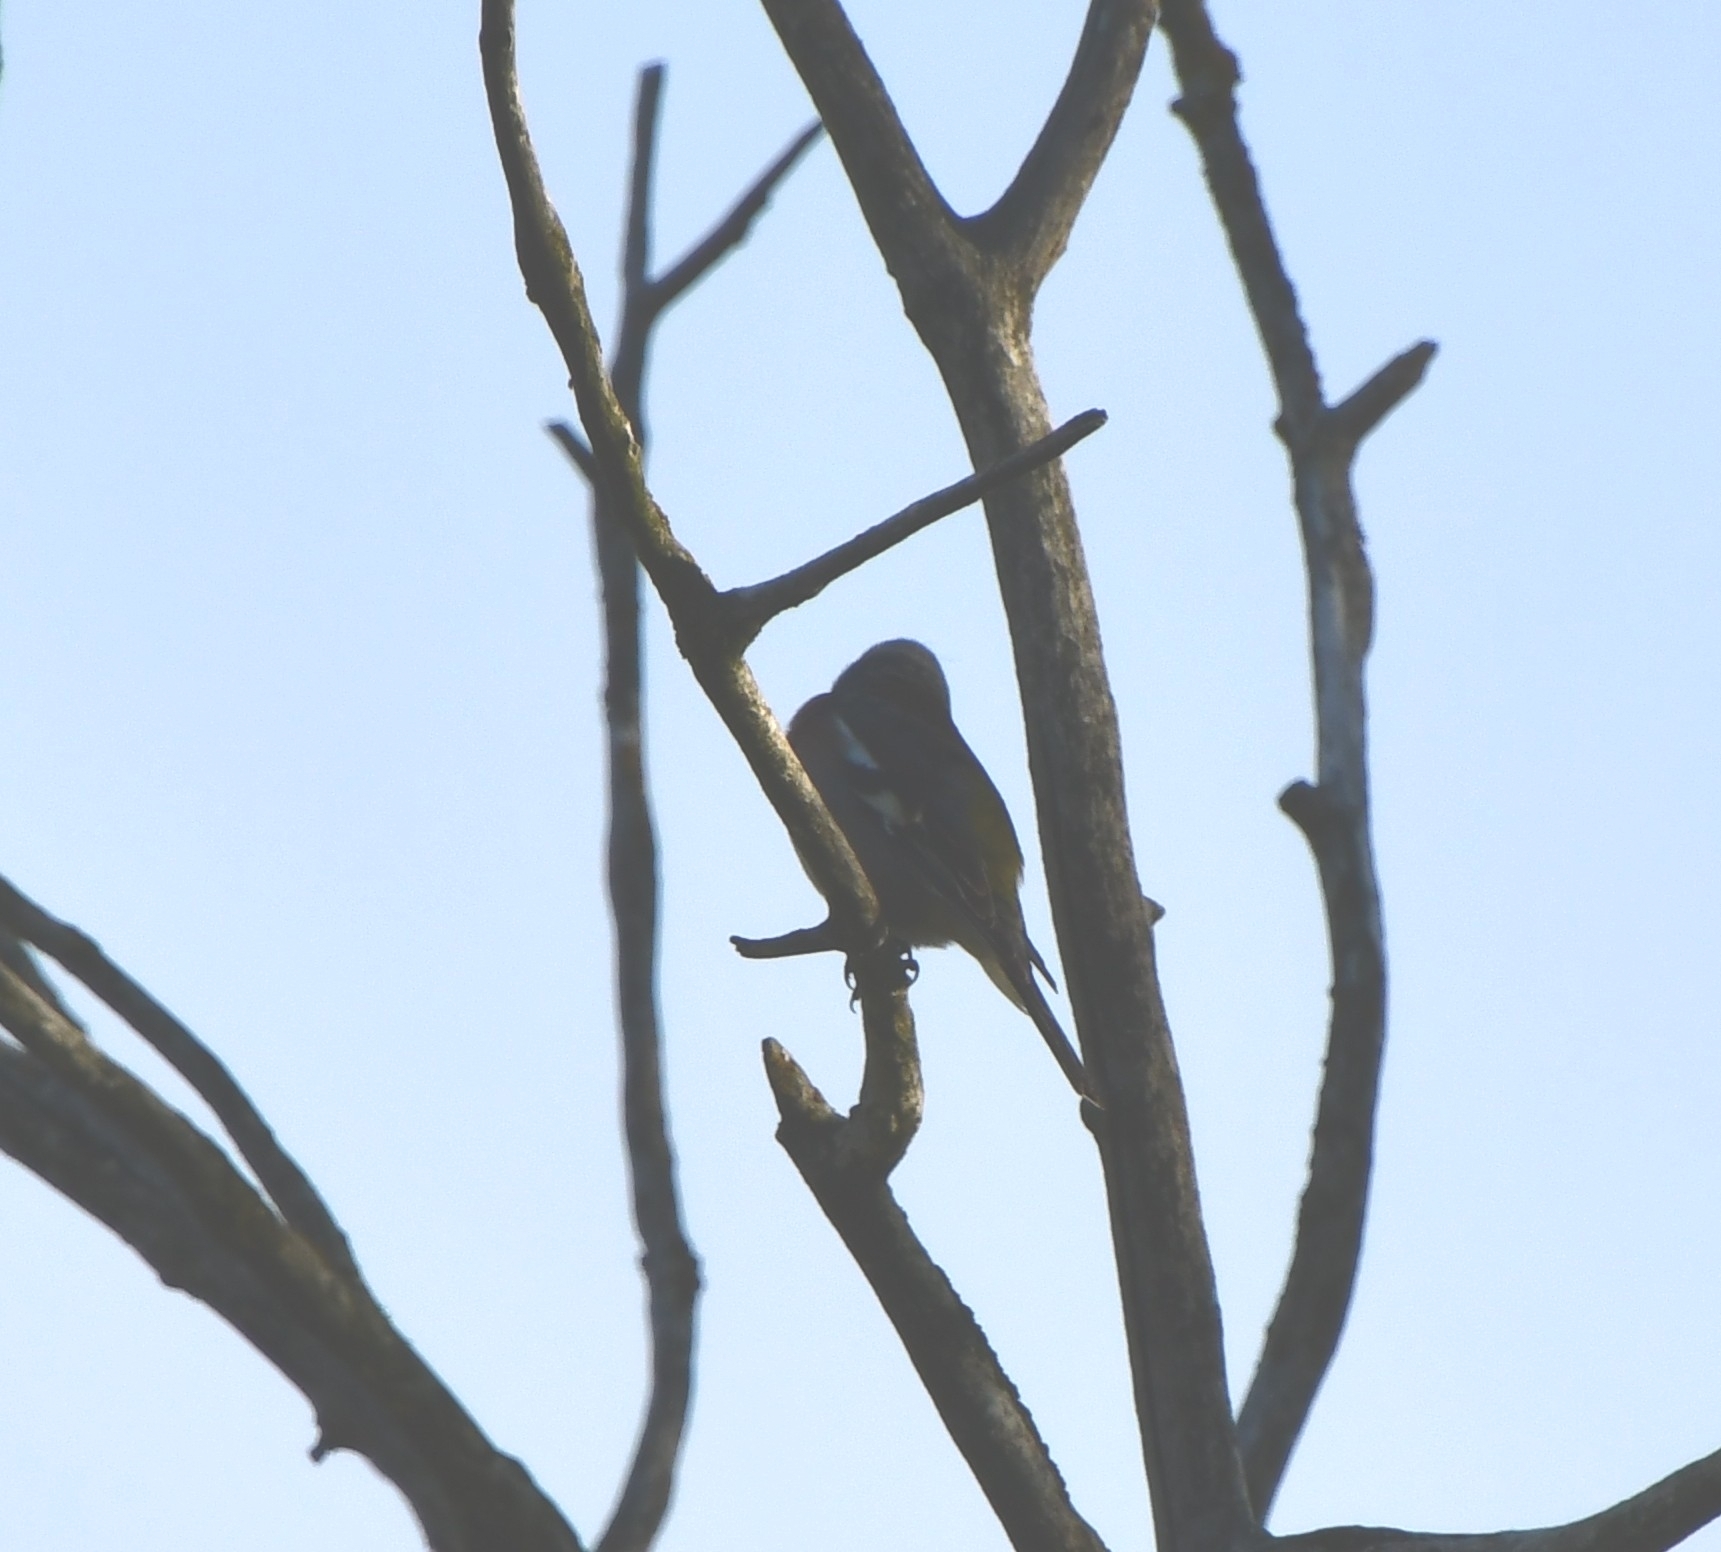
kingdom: Animalia
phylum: Chordata
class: Aves
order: Passeriformes
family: Fringillidae
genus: Fringilla
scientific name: Fringilla coelebs
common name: Common chaffinch
